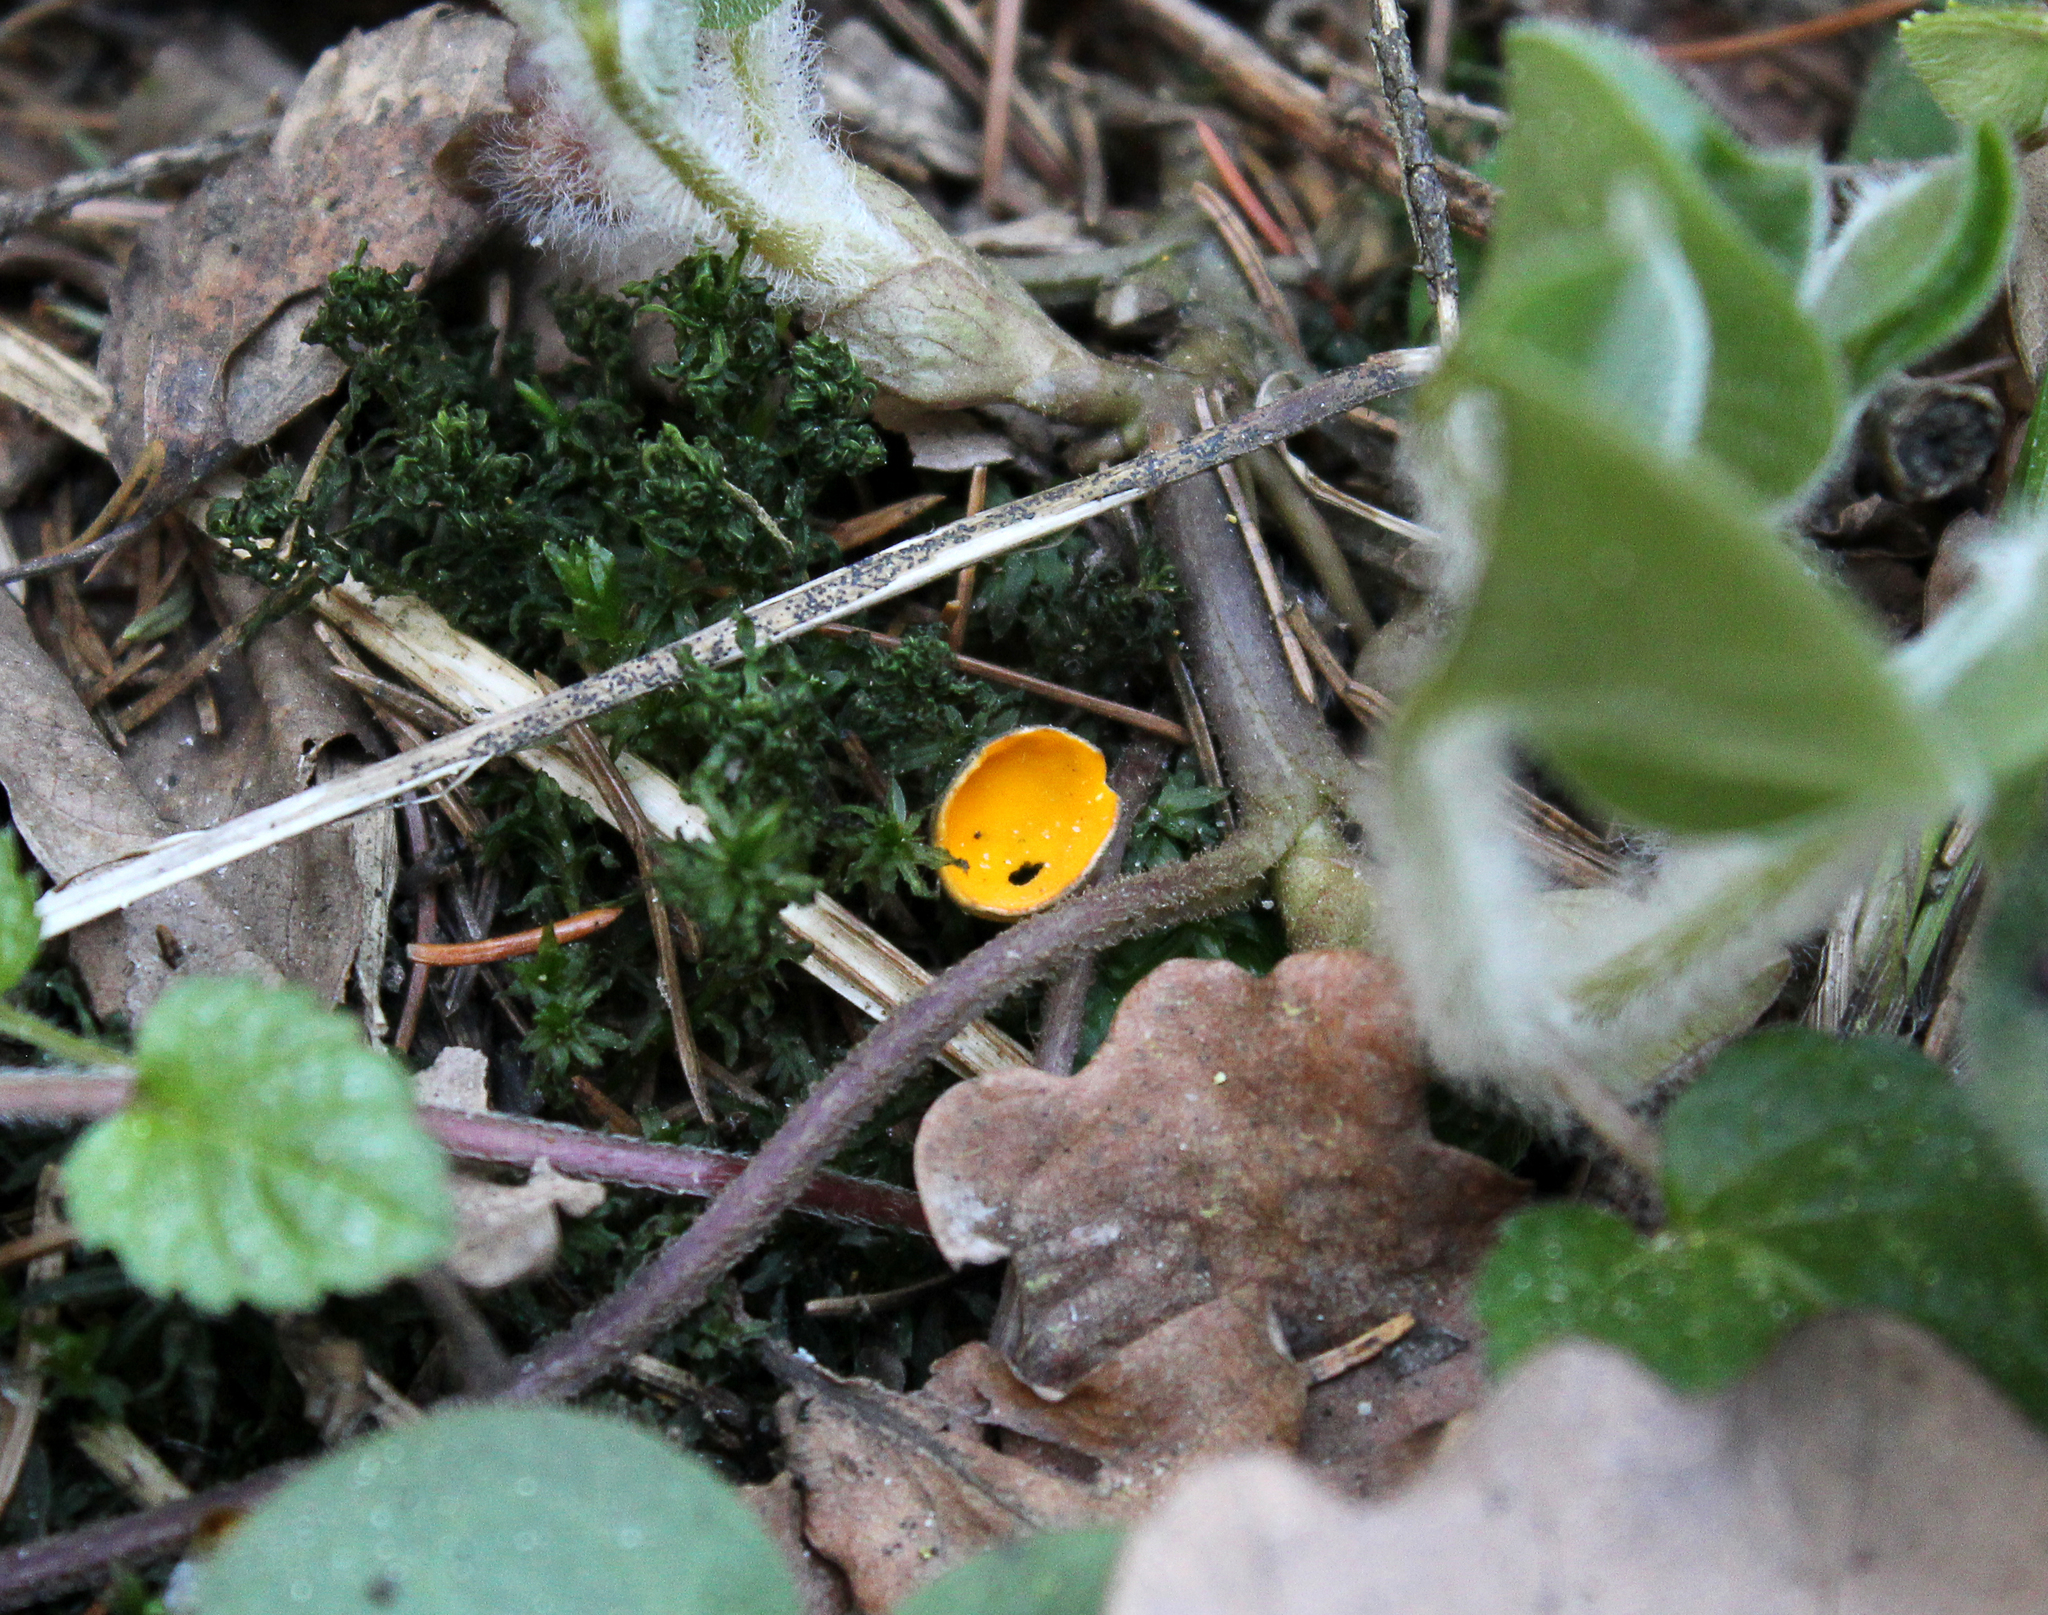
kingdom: Fungi
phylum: Ascomycota
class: Pezizomycetes
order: Pezizales
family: Caloscyphaceae
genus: Caloscypha
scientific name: Caloscypha fulgens
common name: Golden cup
